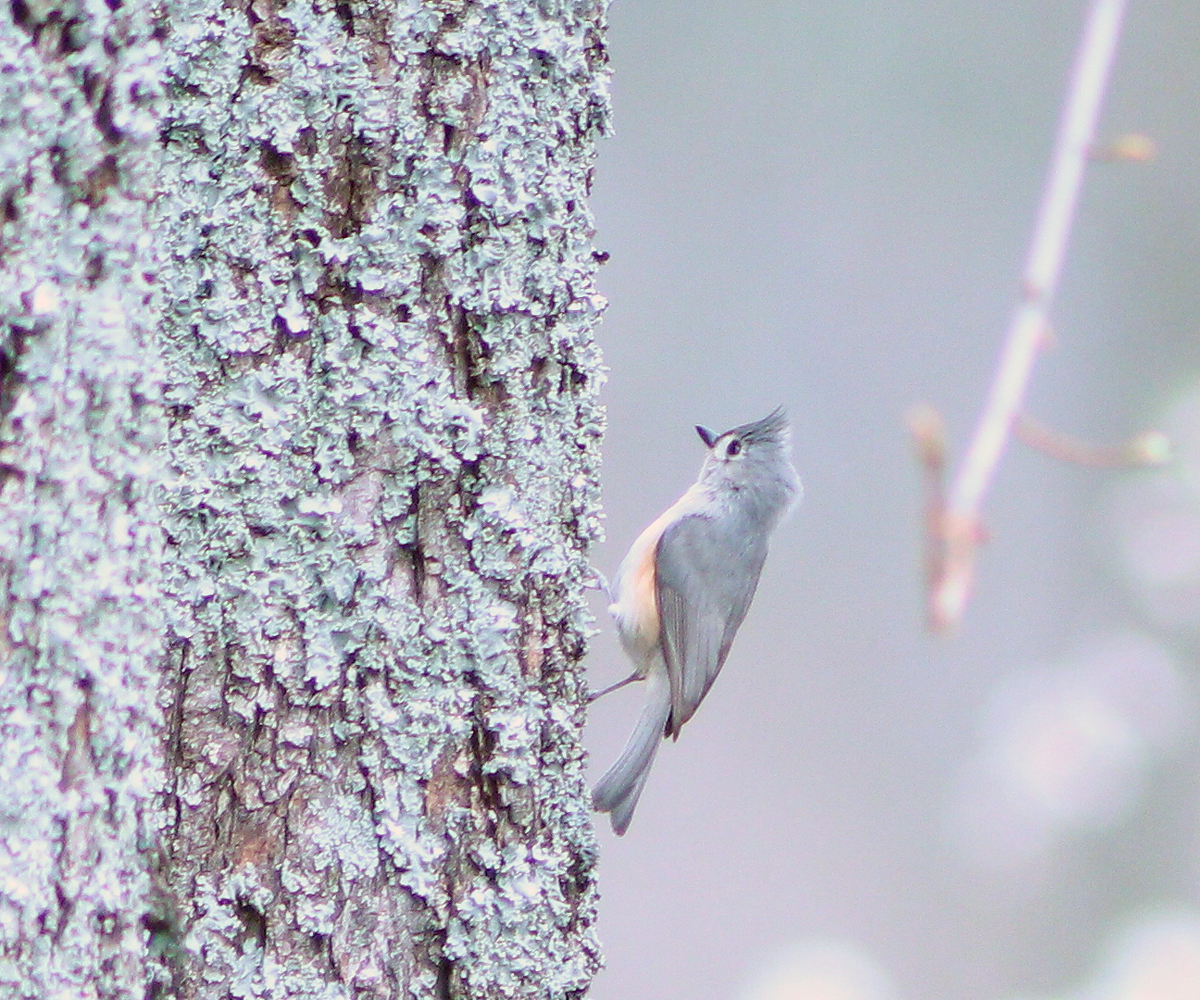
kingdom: Animalia
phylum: Chordata
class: Aves
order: Passeriformes
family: Paridae
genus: Baeolophus
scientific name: Baeolophus bicolor
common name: Tufted titmouse
